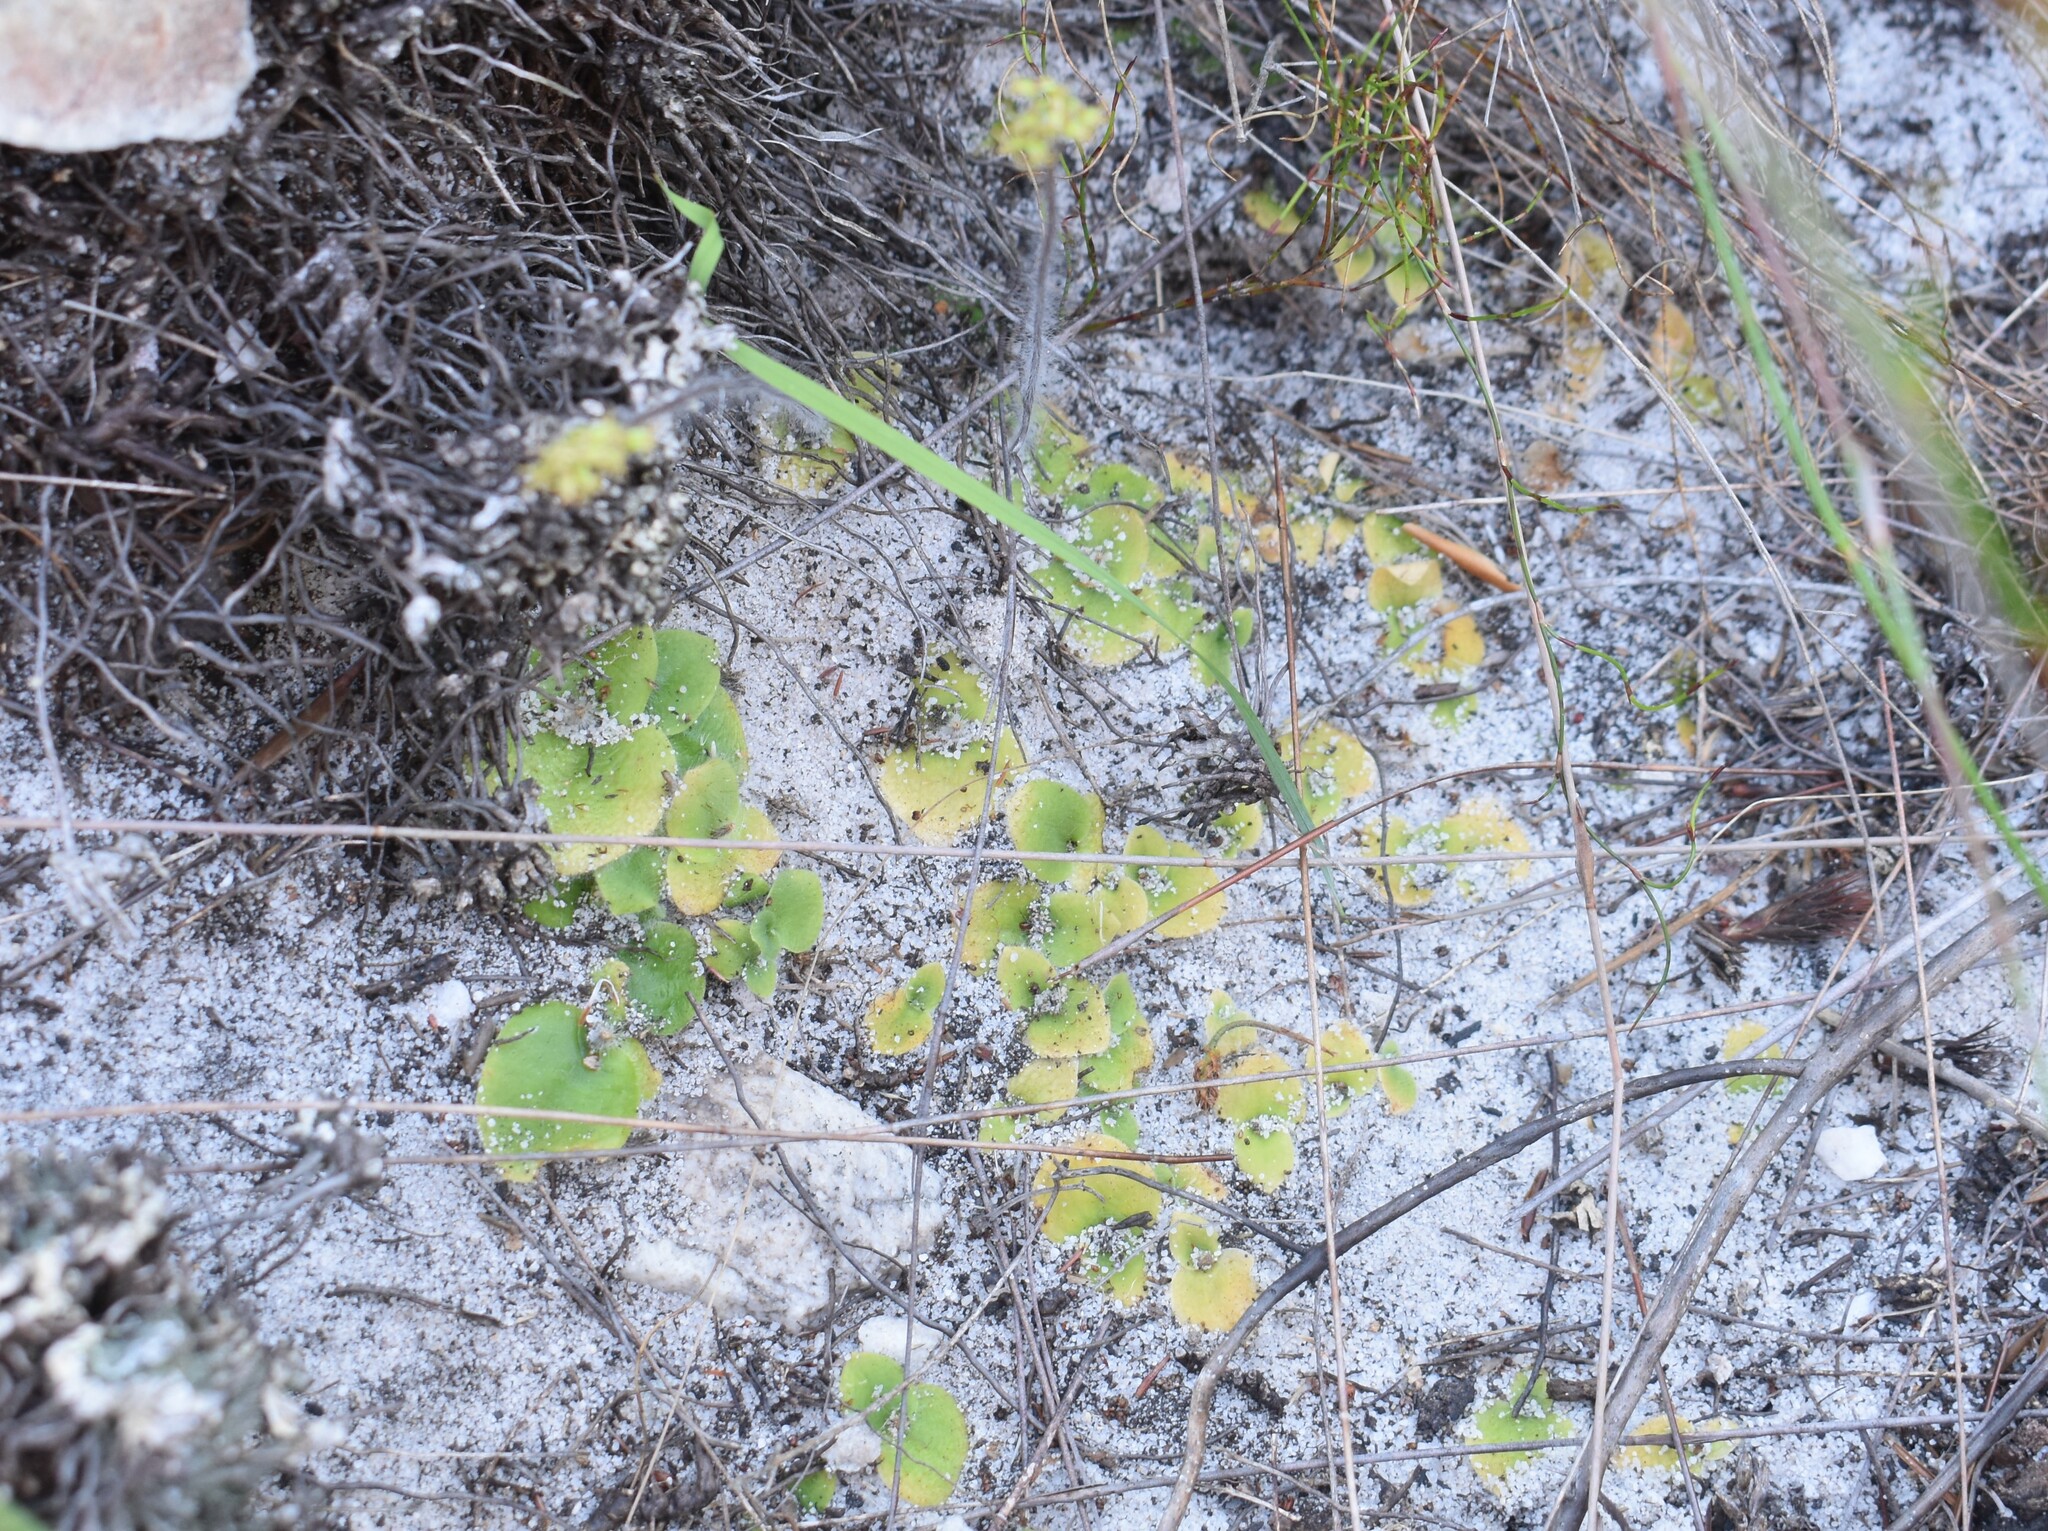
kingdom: Plantae
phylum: Tracheophyta
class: Liliopsida
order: Asparagales
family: Orchidaceae
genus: Holothrix
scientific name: Holothrix villosa
